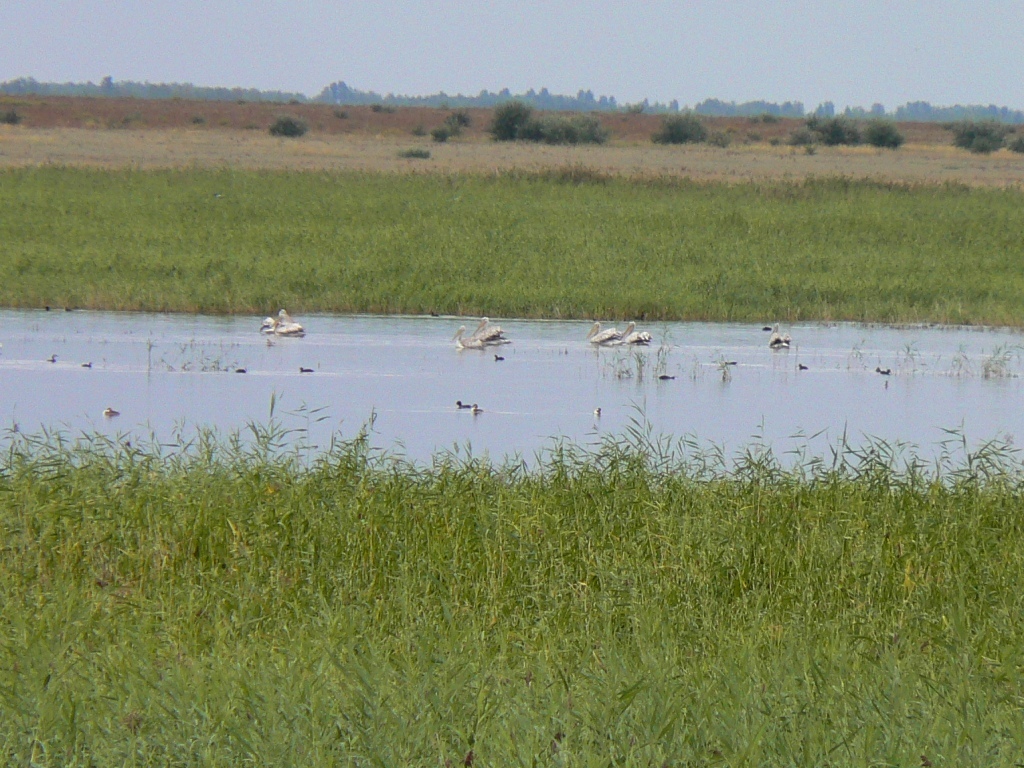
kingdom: Animalia
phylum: Chordata
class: Aves
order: Pelecaniformes
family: Pelecanidae
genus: Pelecanus
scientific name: Pelecanus crispus
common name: Dalmatian pelican
